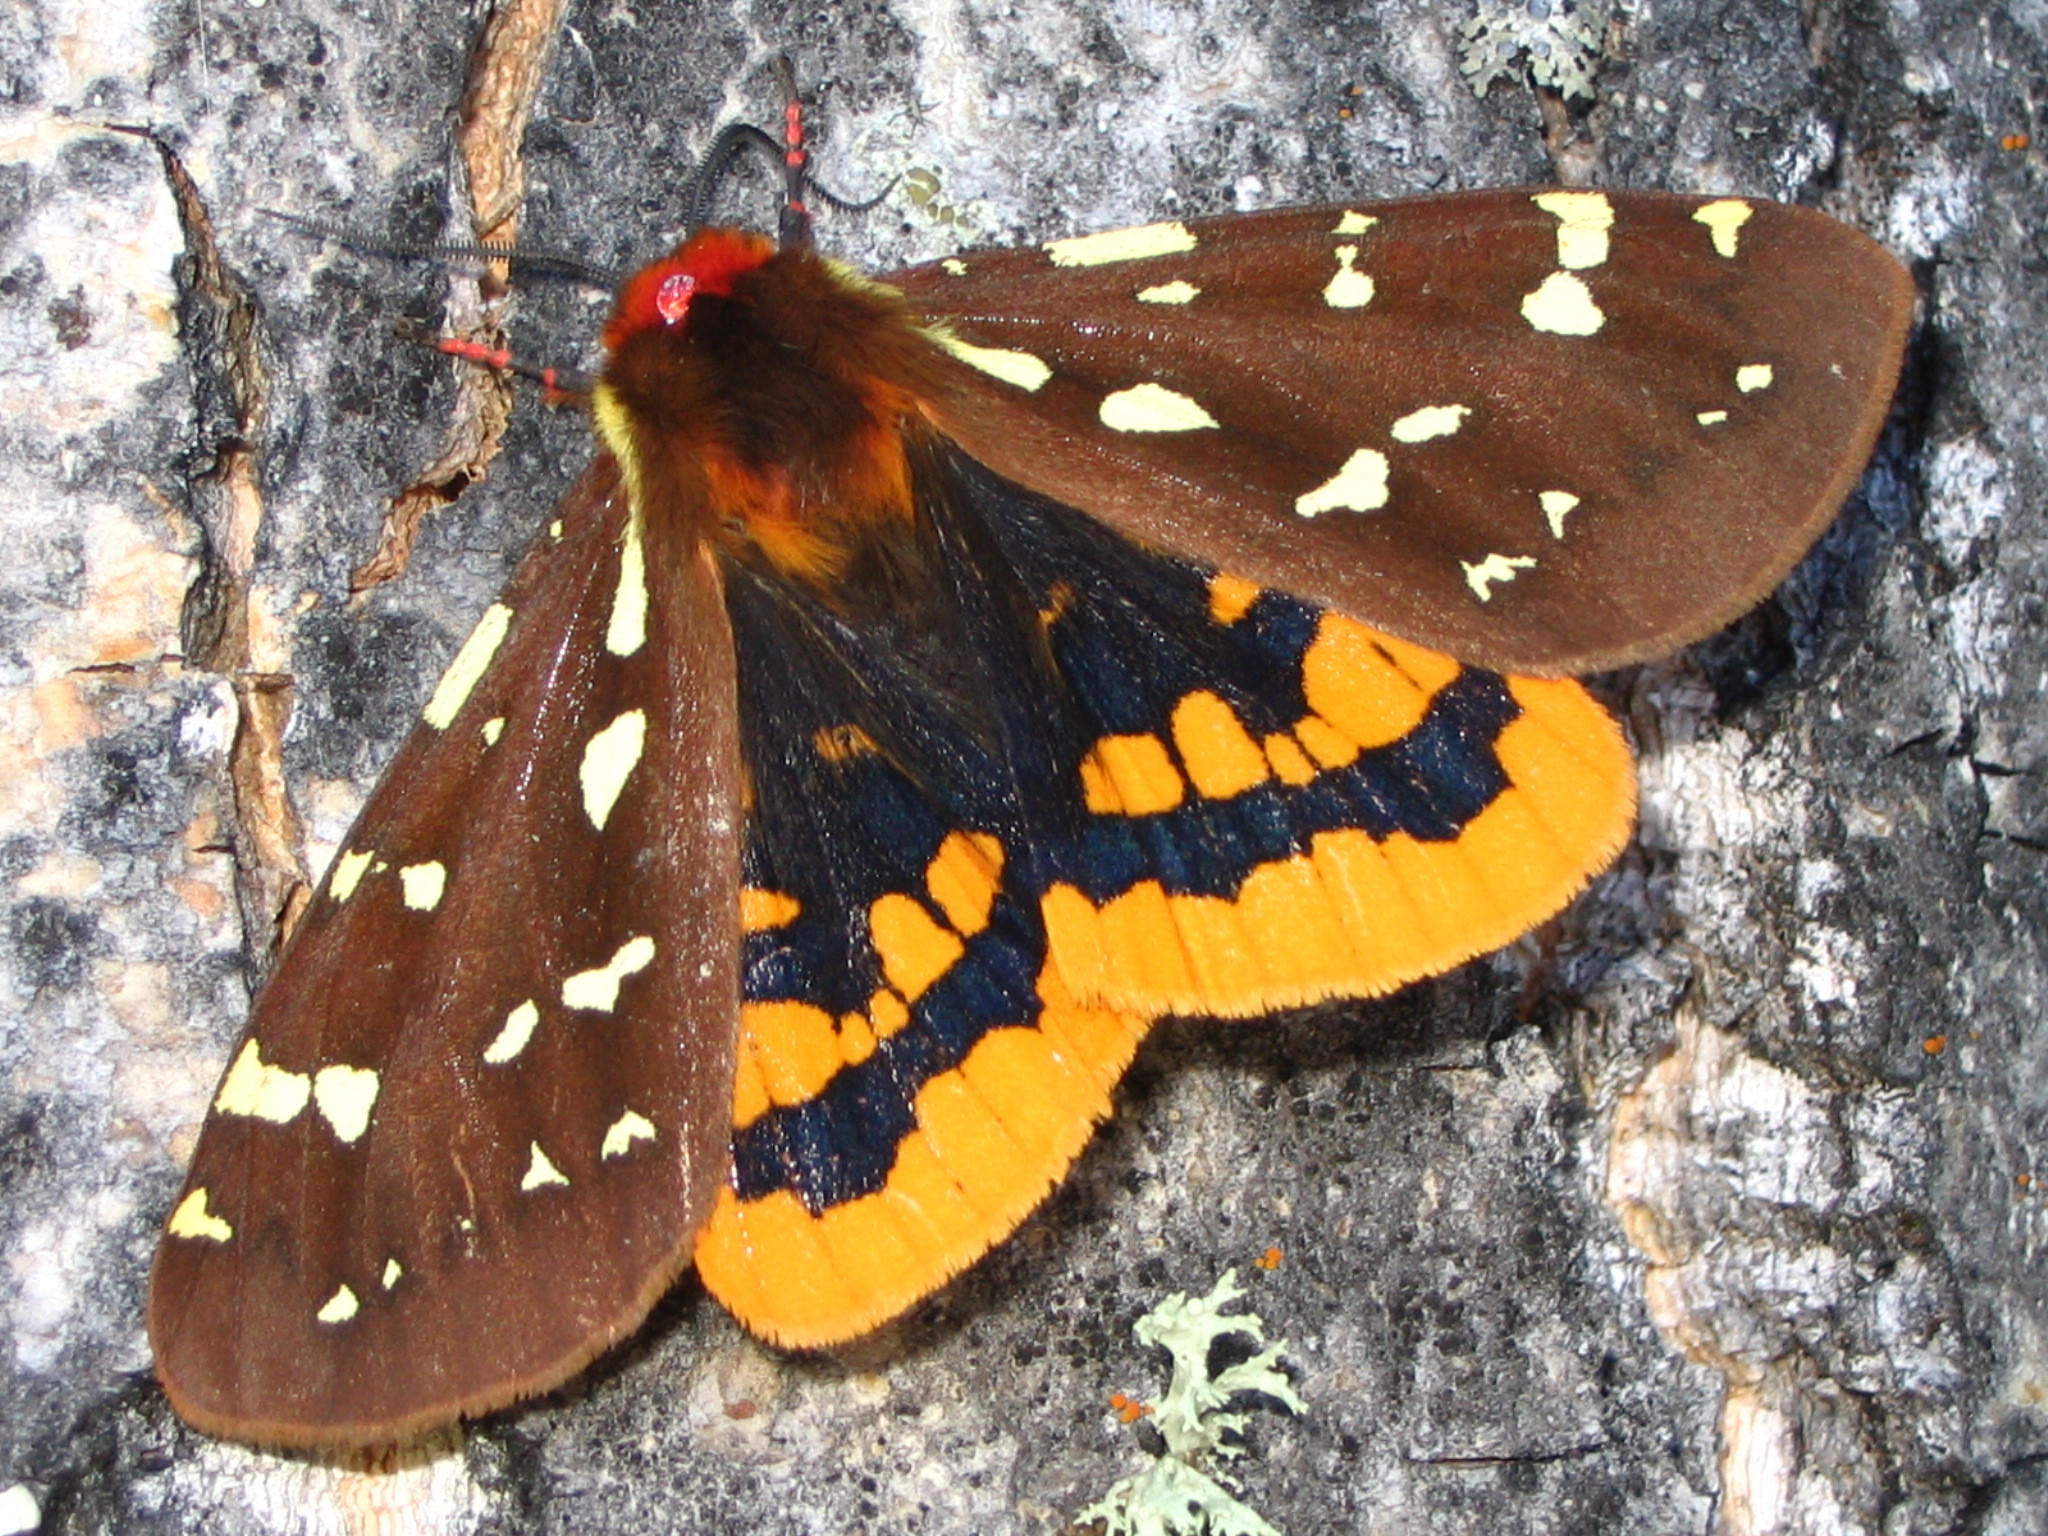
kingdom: Animalia
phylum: Arthropoda
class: Insecta
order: Lepidoptera
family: Erebidae
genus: Arctia
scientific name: Arctia parthenos
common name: St. lawrence tiger moth
